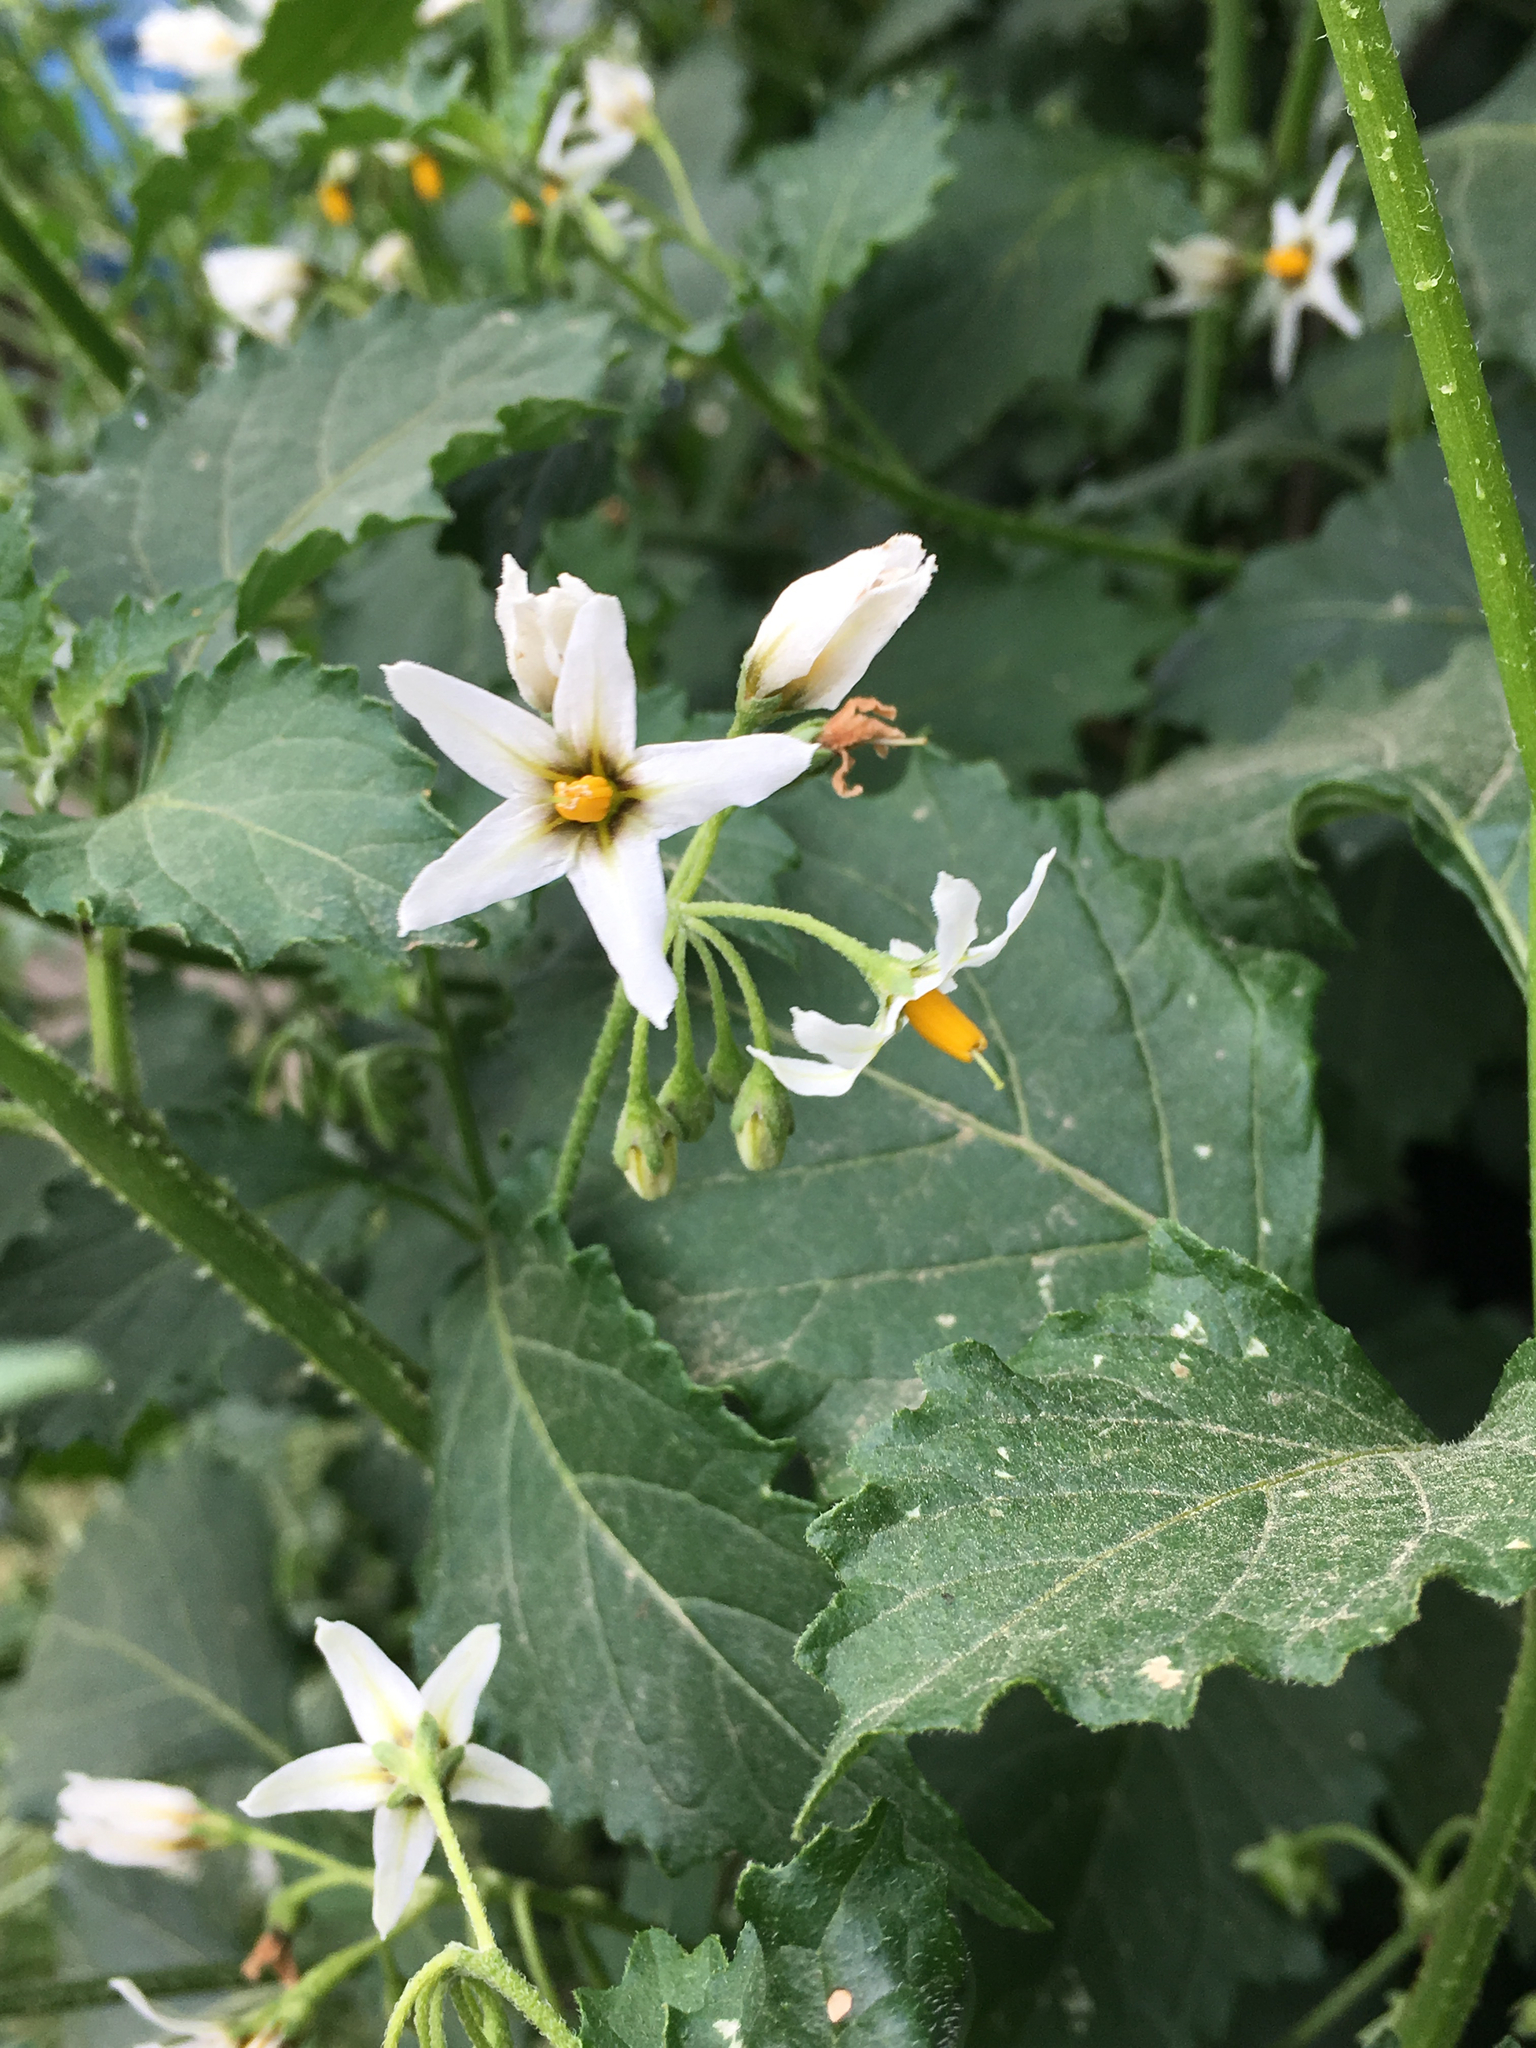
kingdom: Plantae
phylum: Tracheophyta
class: Magnoliopsida
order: Solanales
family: Solanaceae
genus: Solanum
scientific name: Solanum douglasii
